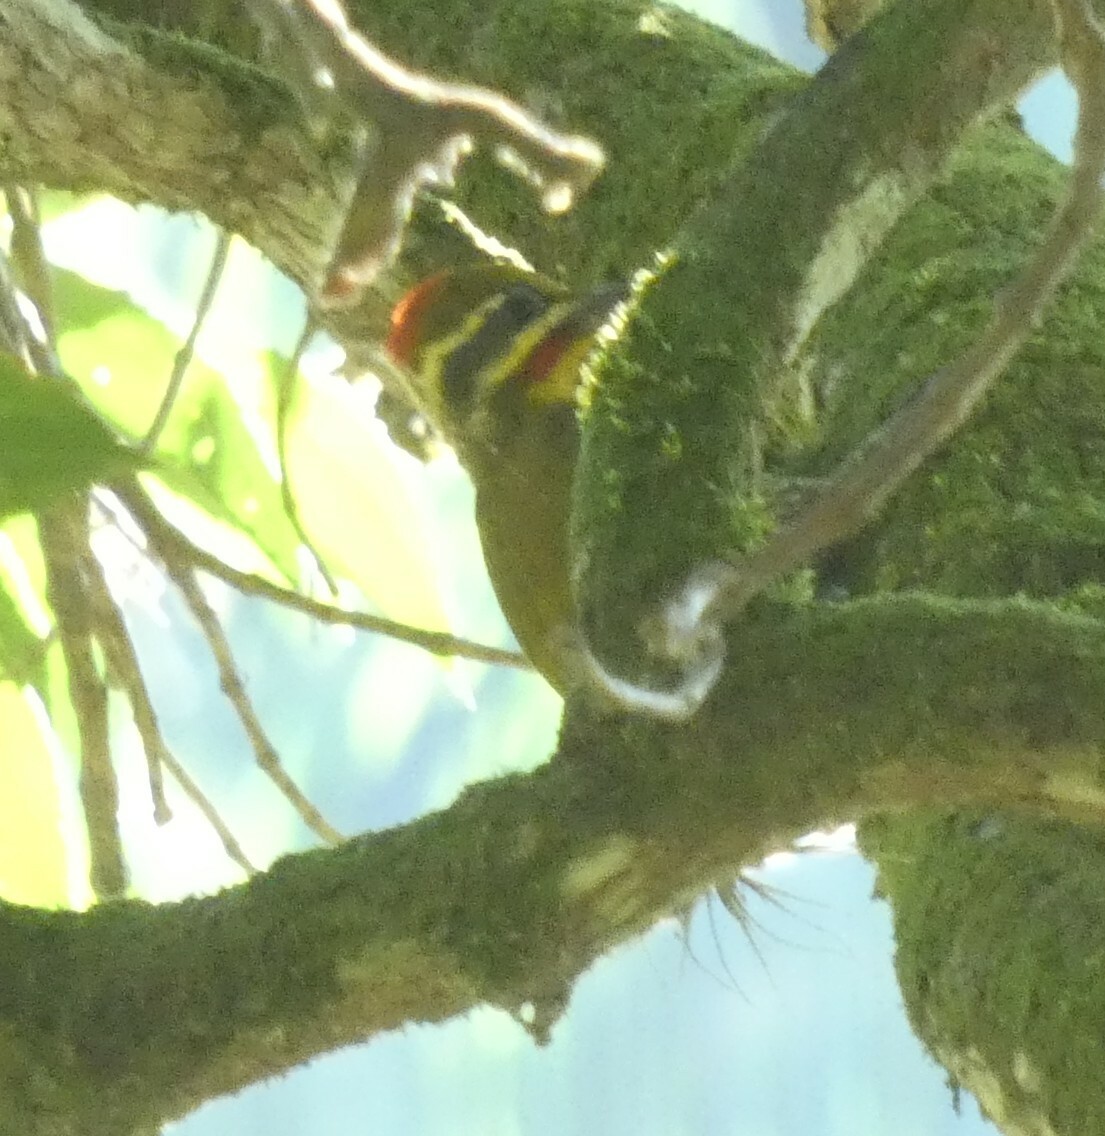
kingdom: Animalia
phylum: Chordata
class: Aves
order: Piciformes
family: Picidae
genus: Piculus
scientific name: Piculus aurulentus
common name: Yellow-browed woodpecker
